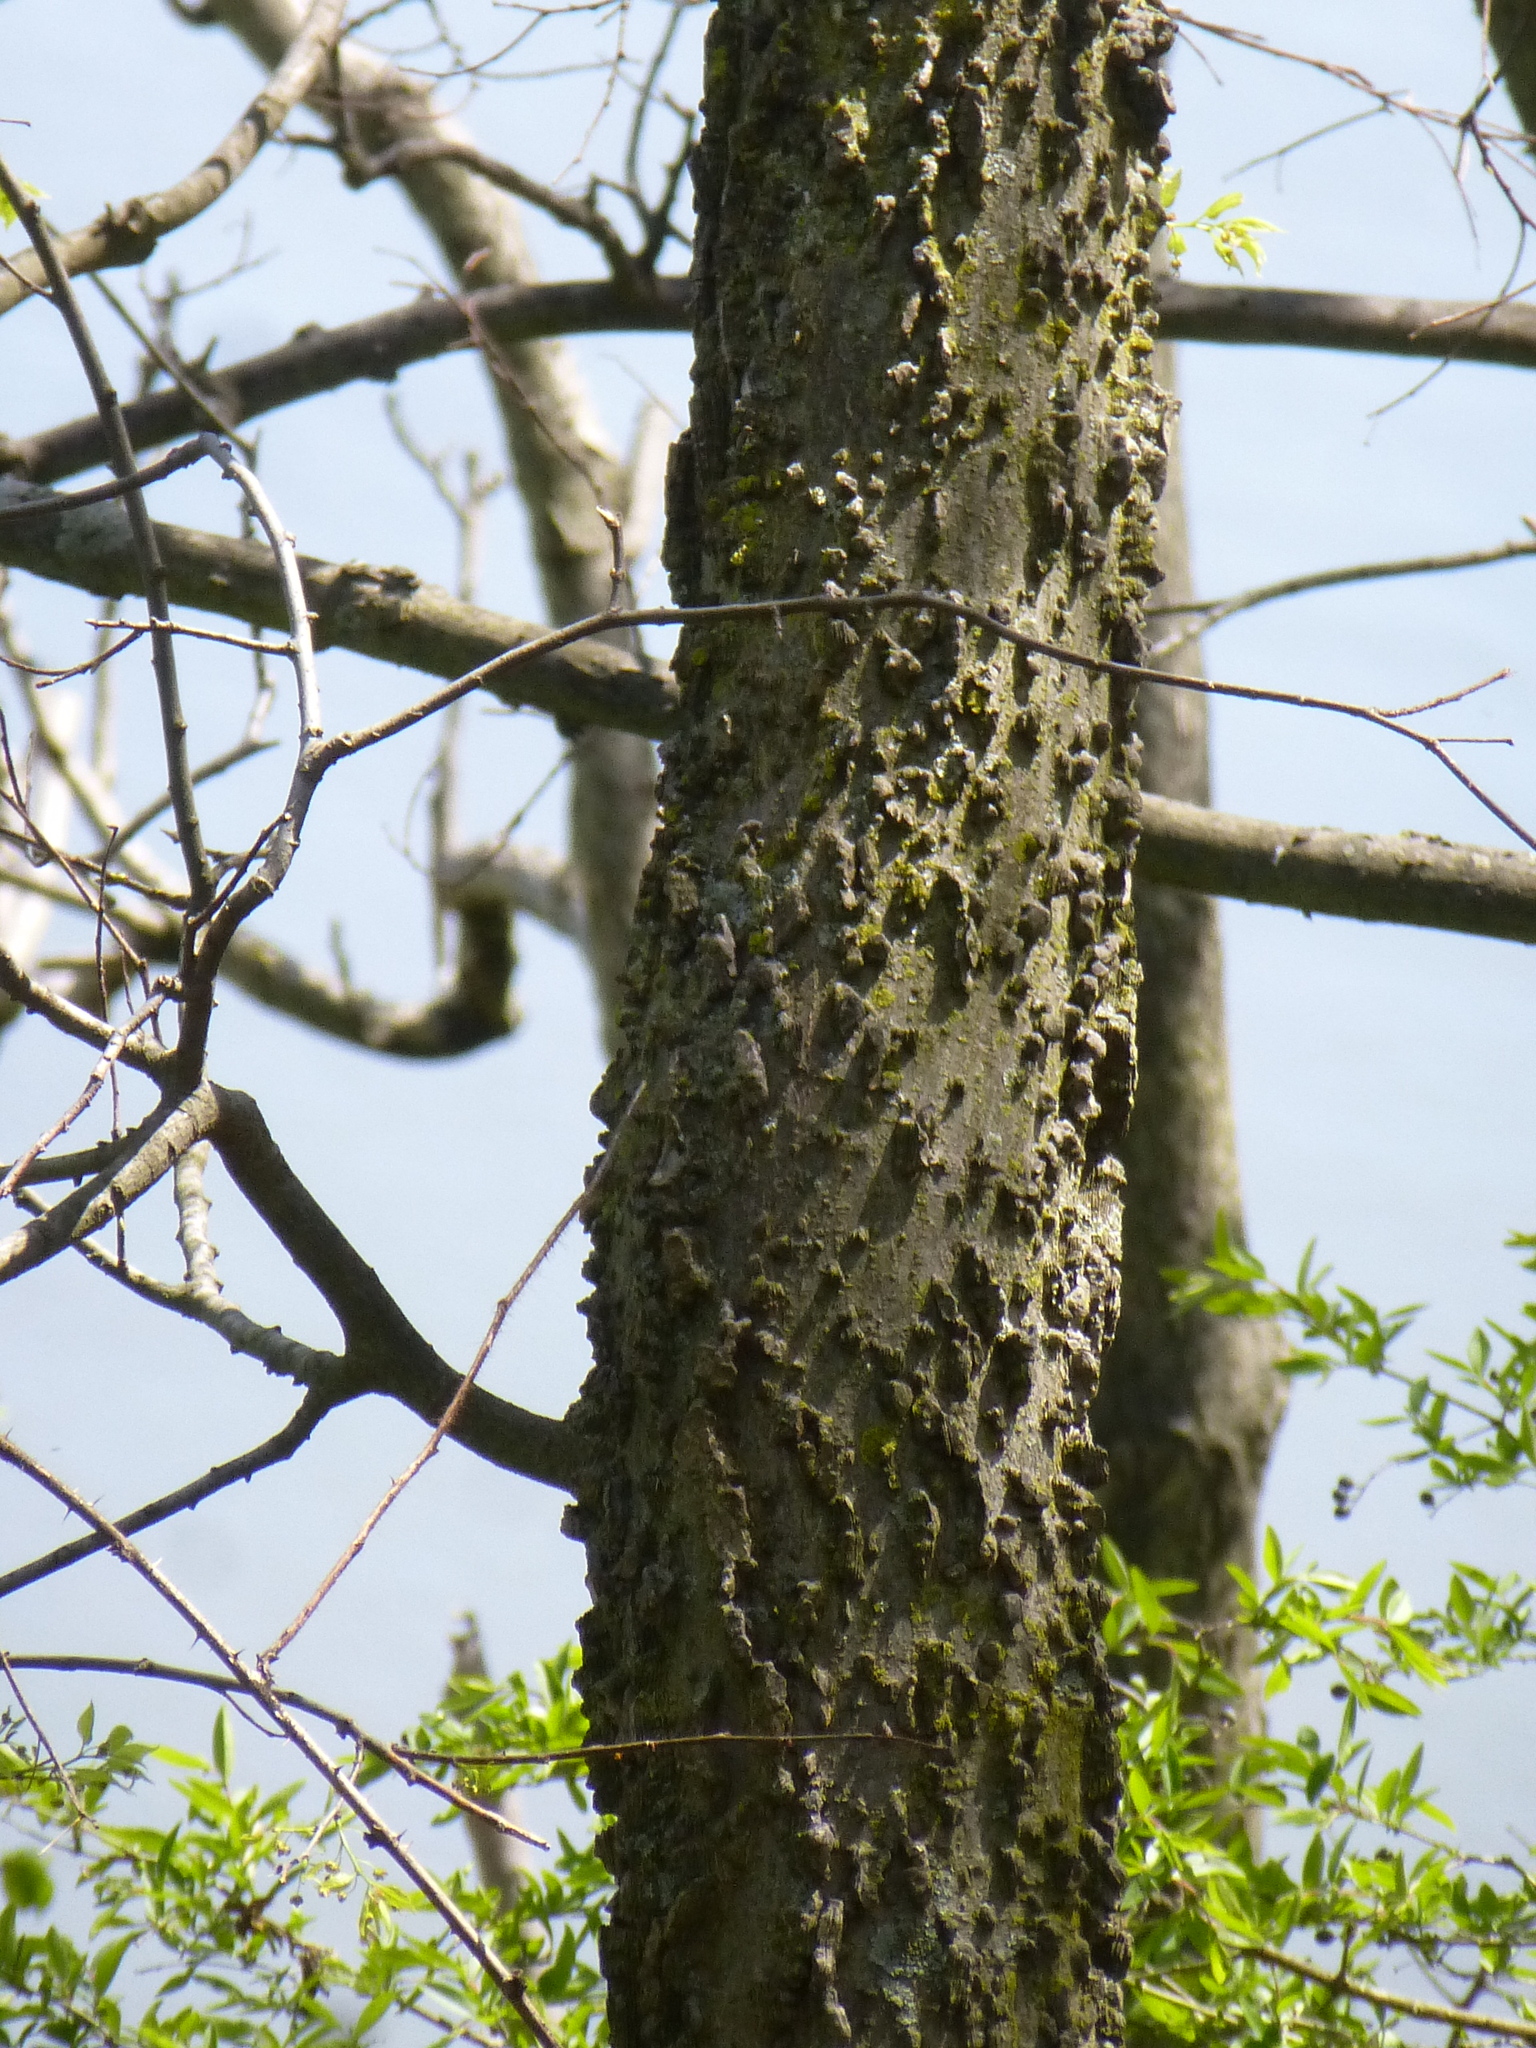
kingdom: Plantae
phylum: Tracheophyta
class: Magnoliopsida
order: Rosales
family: Cannabaceae
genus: Celtis
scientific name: Celtis occidentalis
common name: Common hackberry
